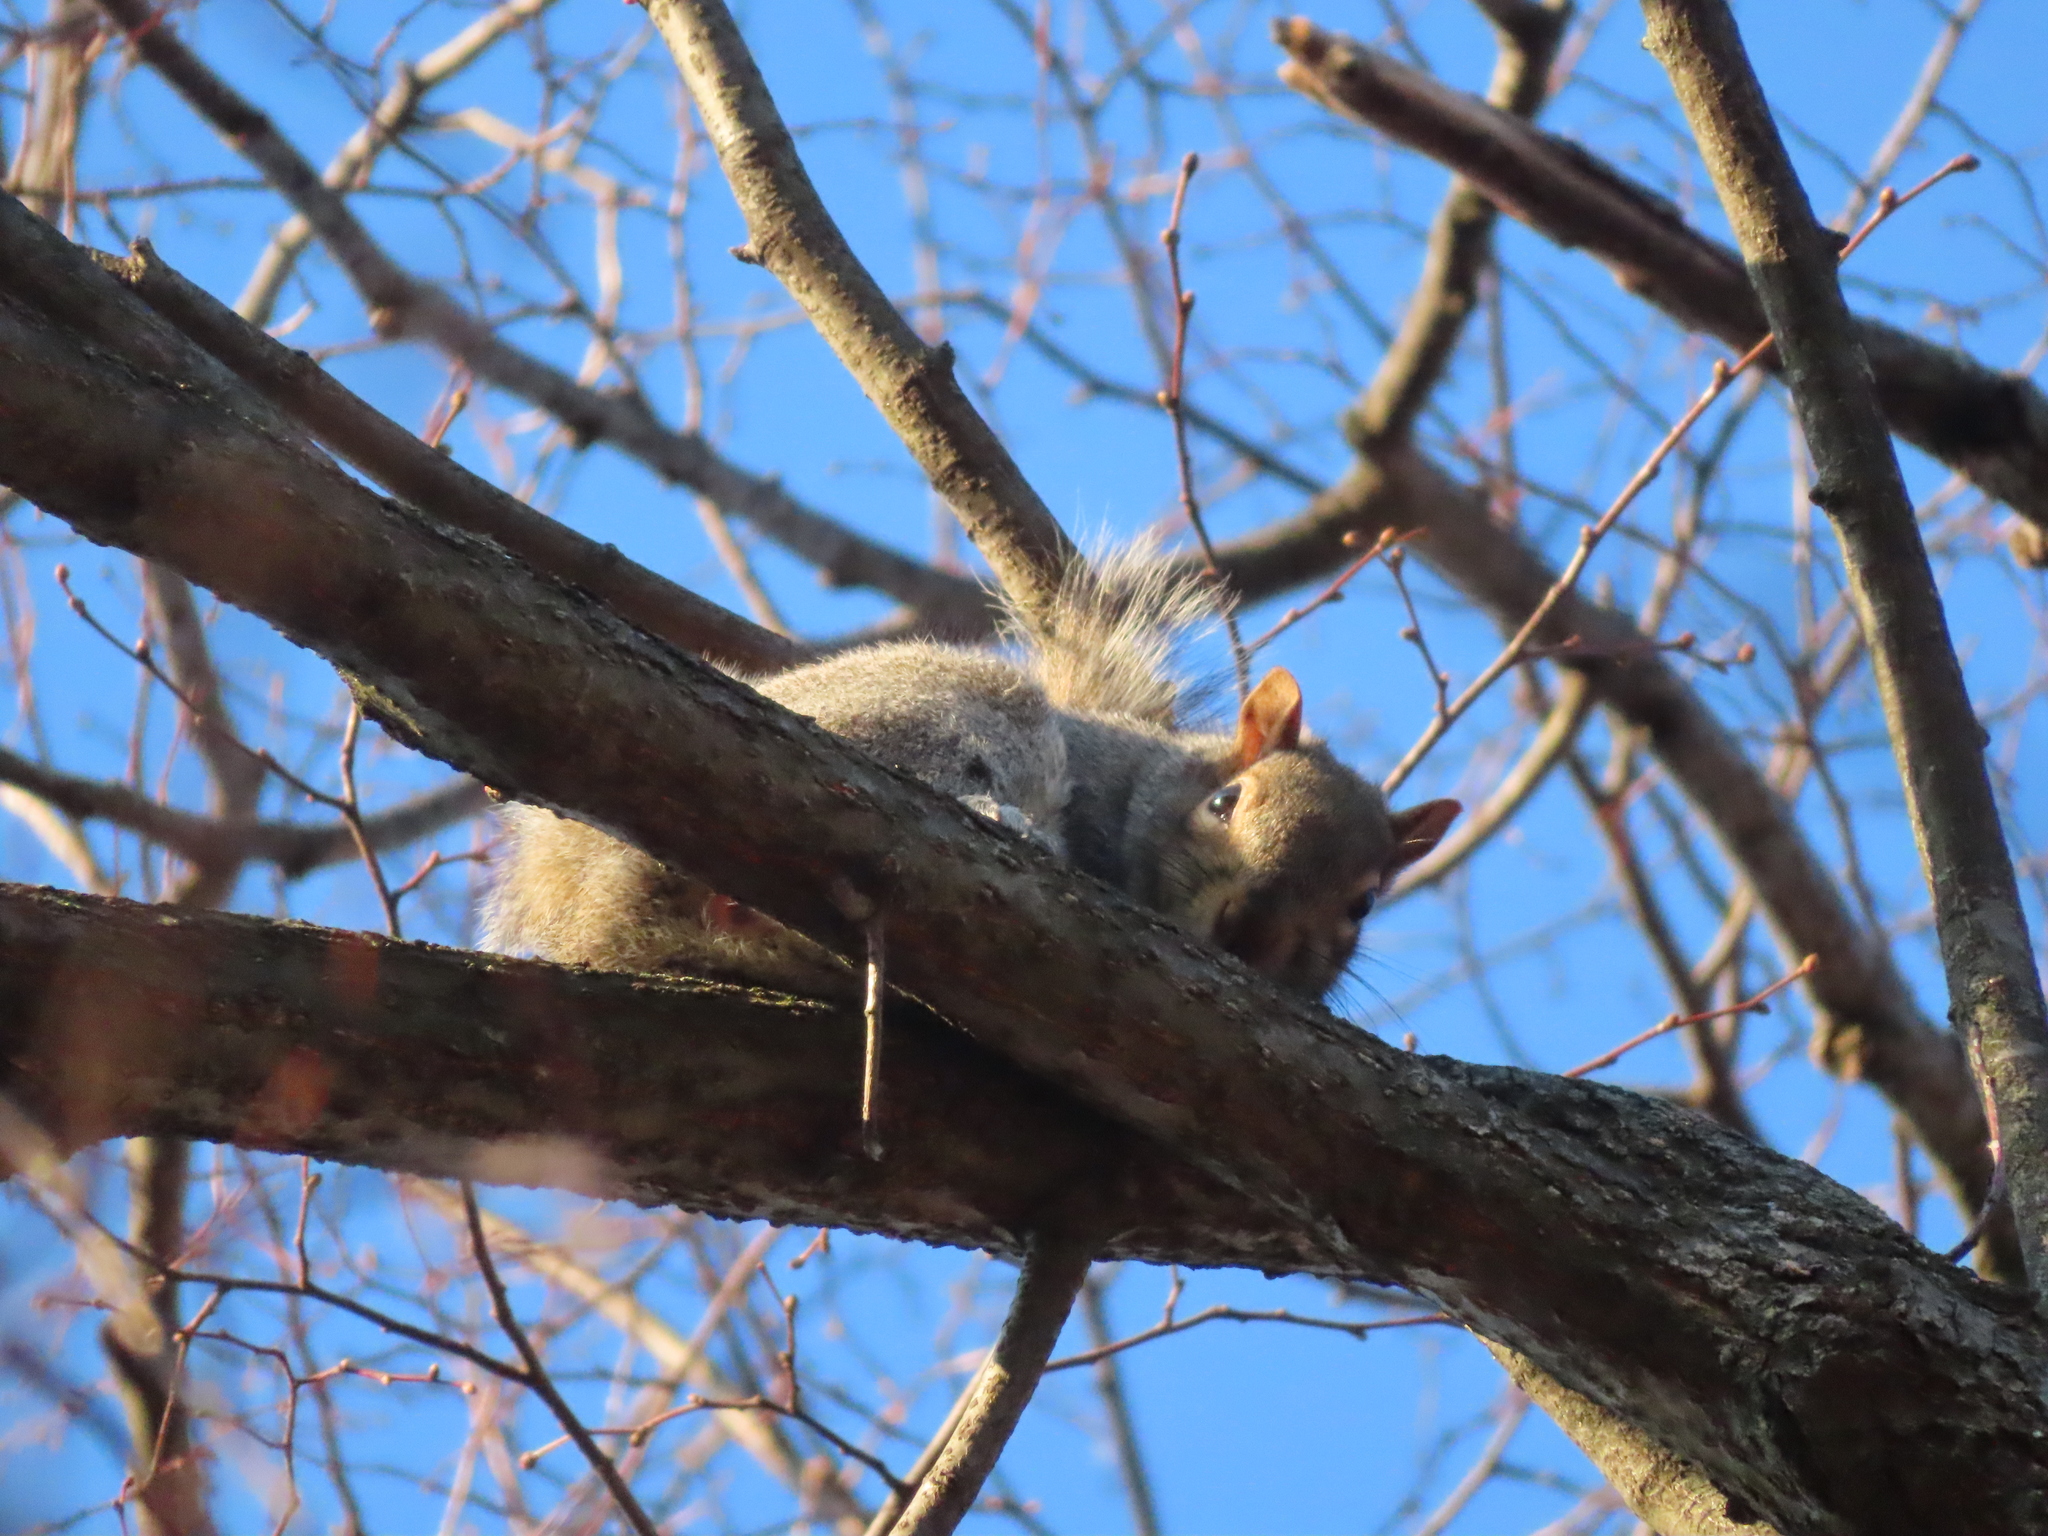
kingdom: Animalia
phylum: Chordata
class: Mammalia
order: Rodentia
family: Sciuridae
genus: Sciurus
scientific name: Sciurus carolinensis
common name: Eastern gray squirrel
